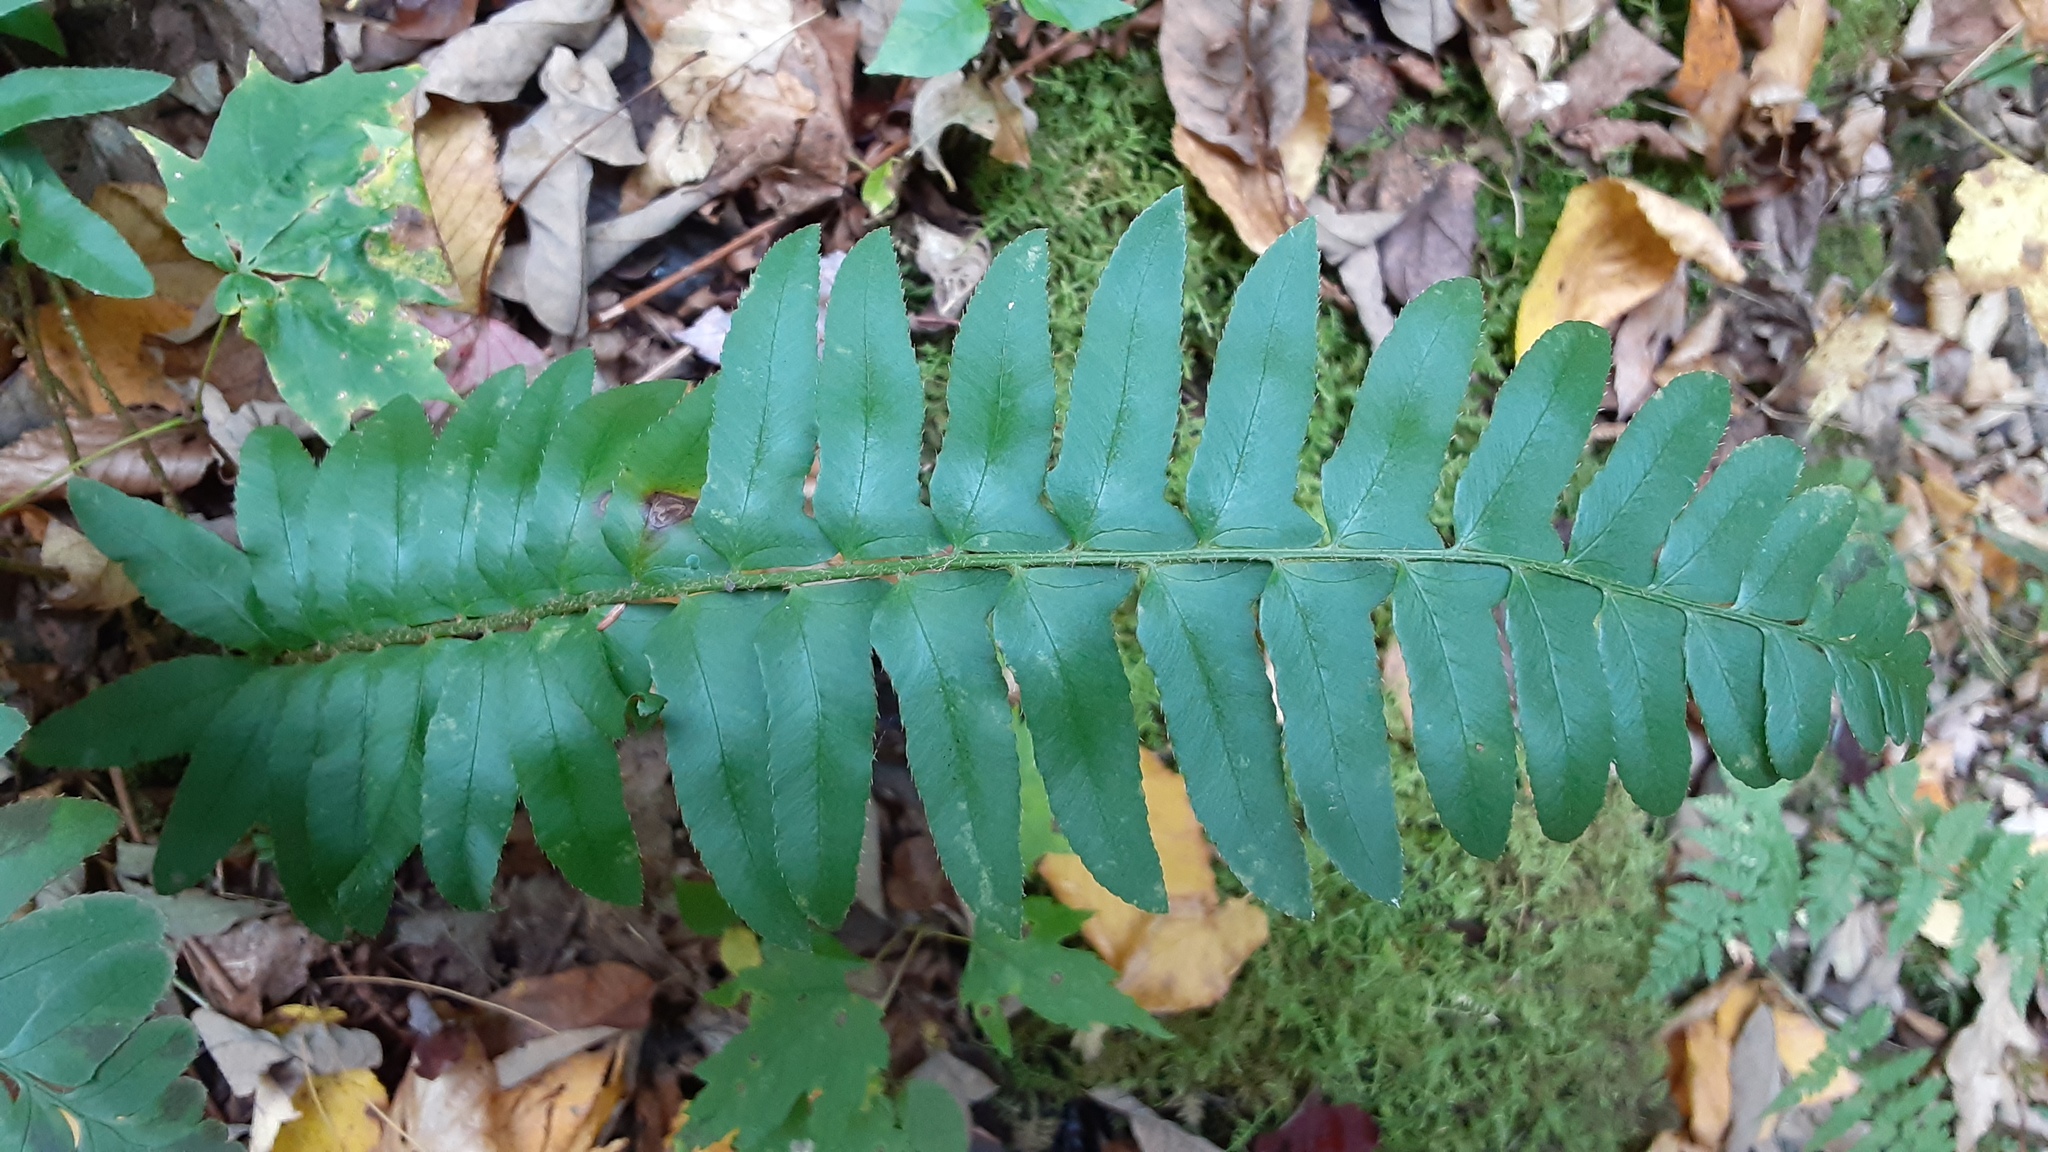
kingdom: Plantae
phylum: Tracheophyta
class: Polypodiopsida
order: Polypodiales
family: Dryopteridaceae
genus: Polystichum
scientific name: Polystichum acrostichoides
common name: Christmas fern
